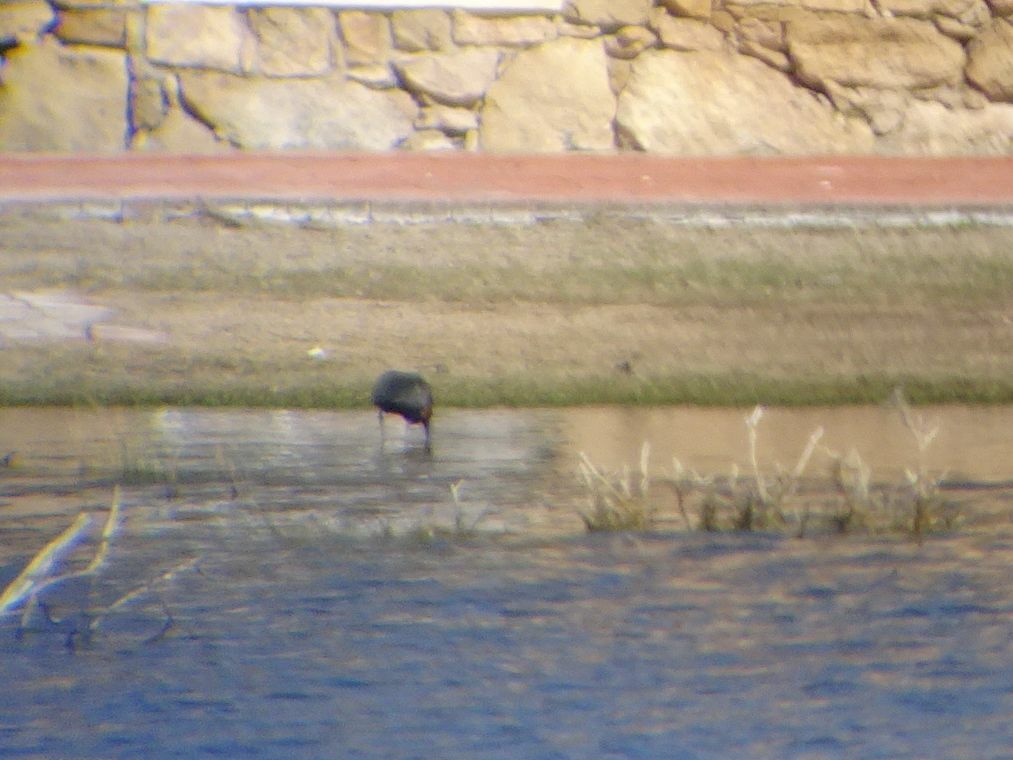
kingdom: Animalia
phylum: Chordata
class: Aves
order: Pelecaniformes
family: Threskiornithidae
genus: Plegadis
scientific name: Plegadis falcinellus
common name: Glossy ibis
